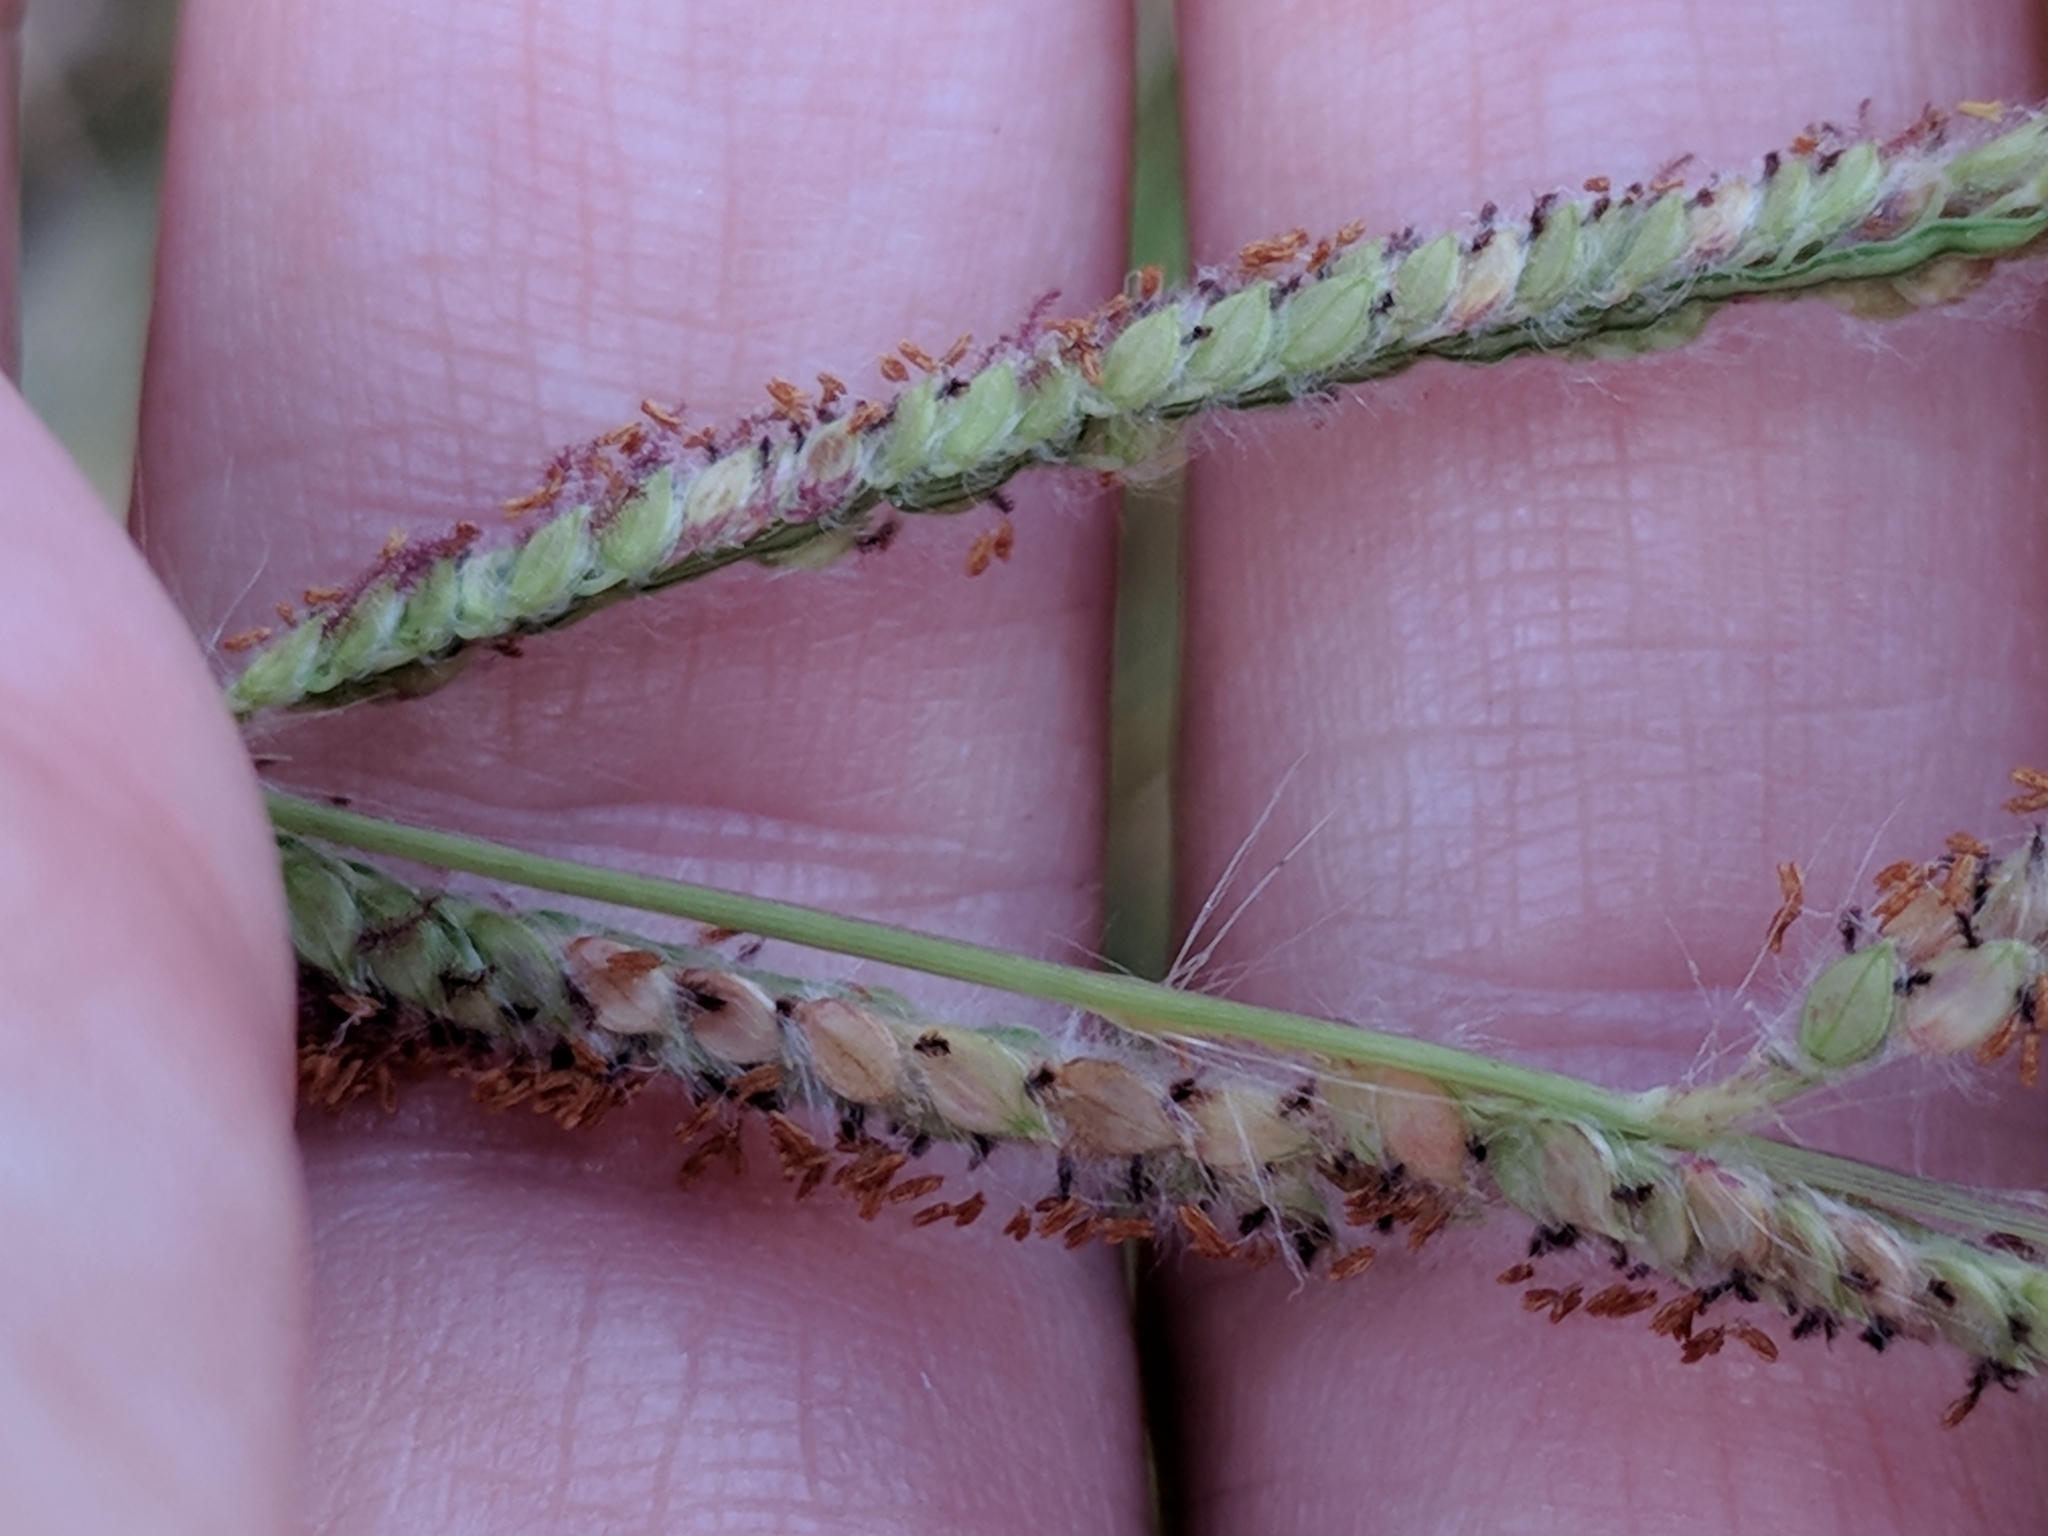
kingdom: Plantae
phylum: Tracheophyta
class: Liliopsida
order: Poales
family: Poaceae
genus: Paspalum
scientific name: Paspalum urvillei
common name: Vasey's grass
